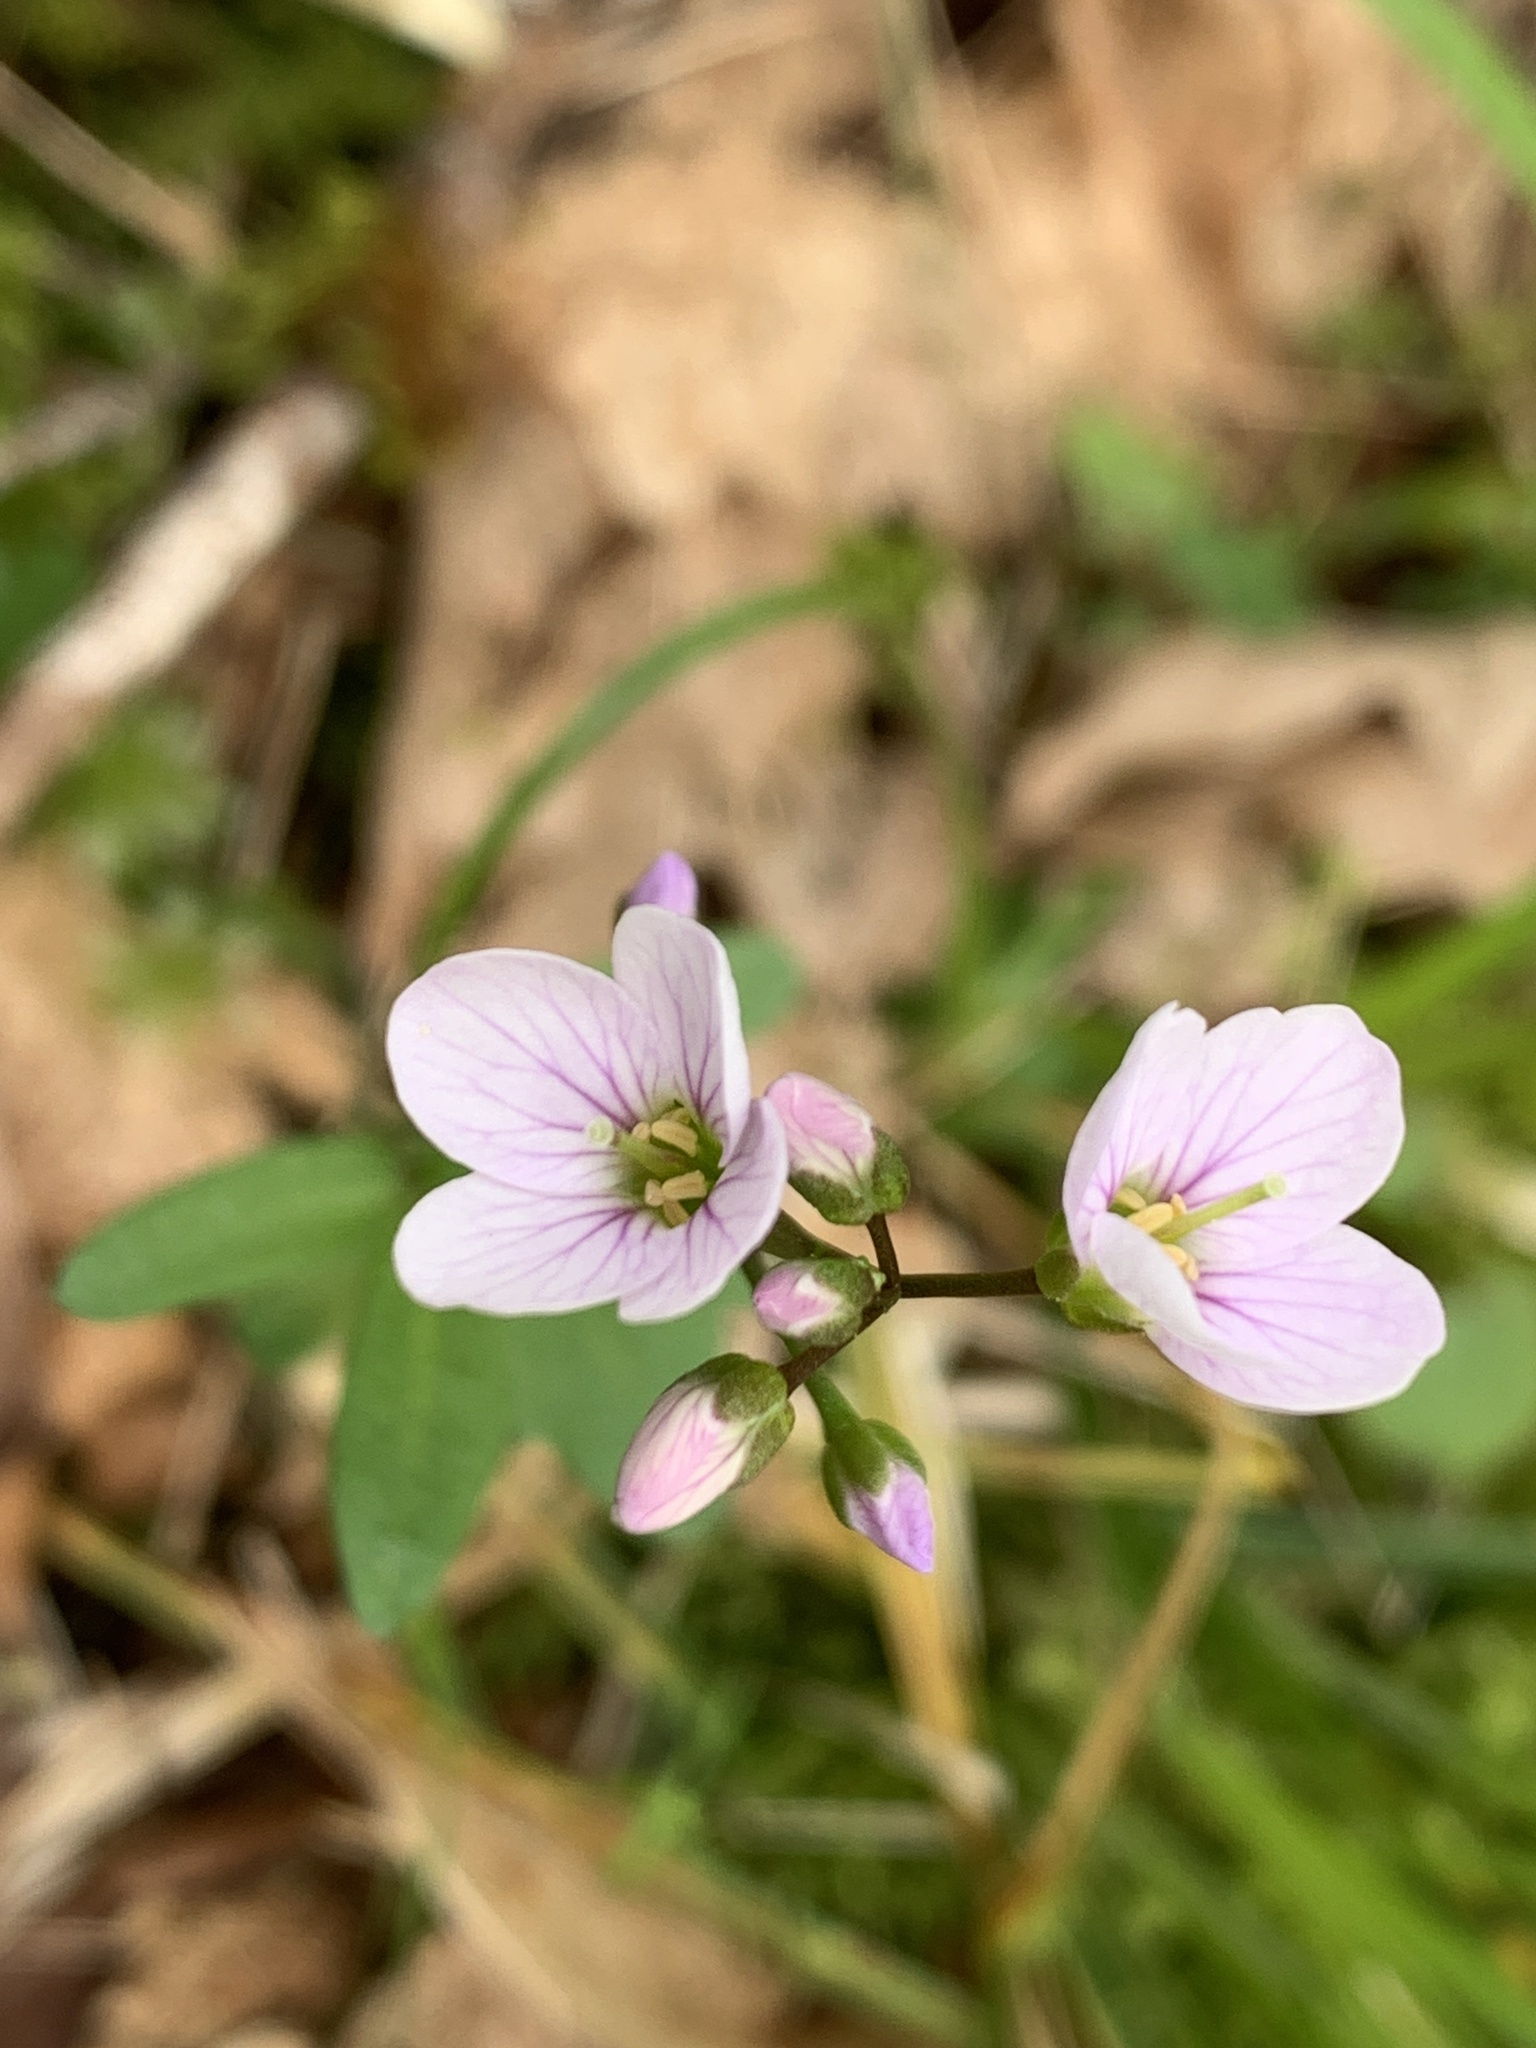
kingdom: Plantae
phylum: Tracheophyta
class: Magnoliopsida
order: Brassicales
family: Brassicaceae
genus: Cardamine
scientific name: Cardamine nuttallii
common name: Nuttall's toothwort
